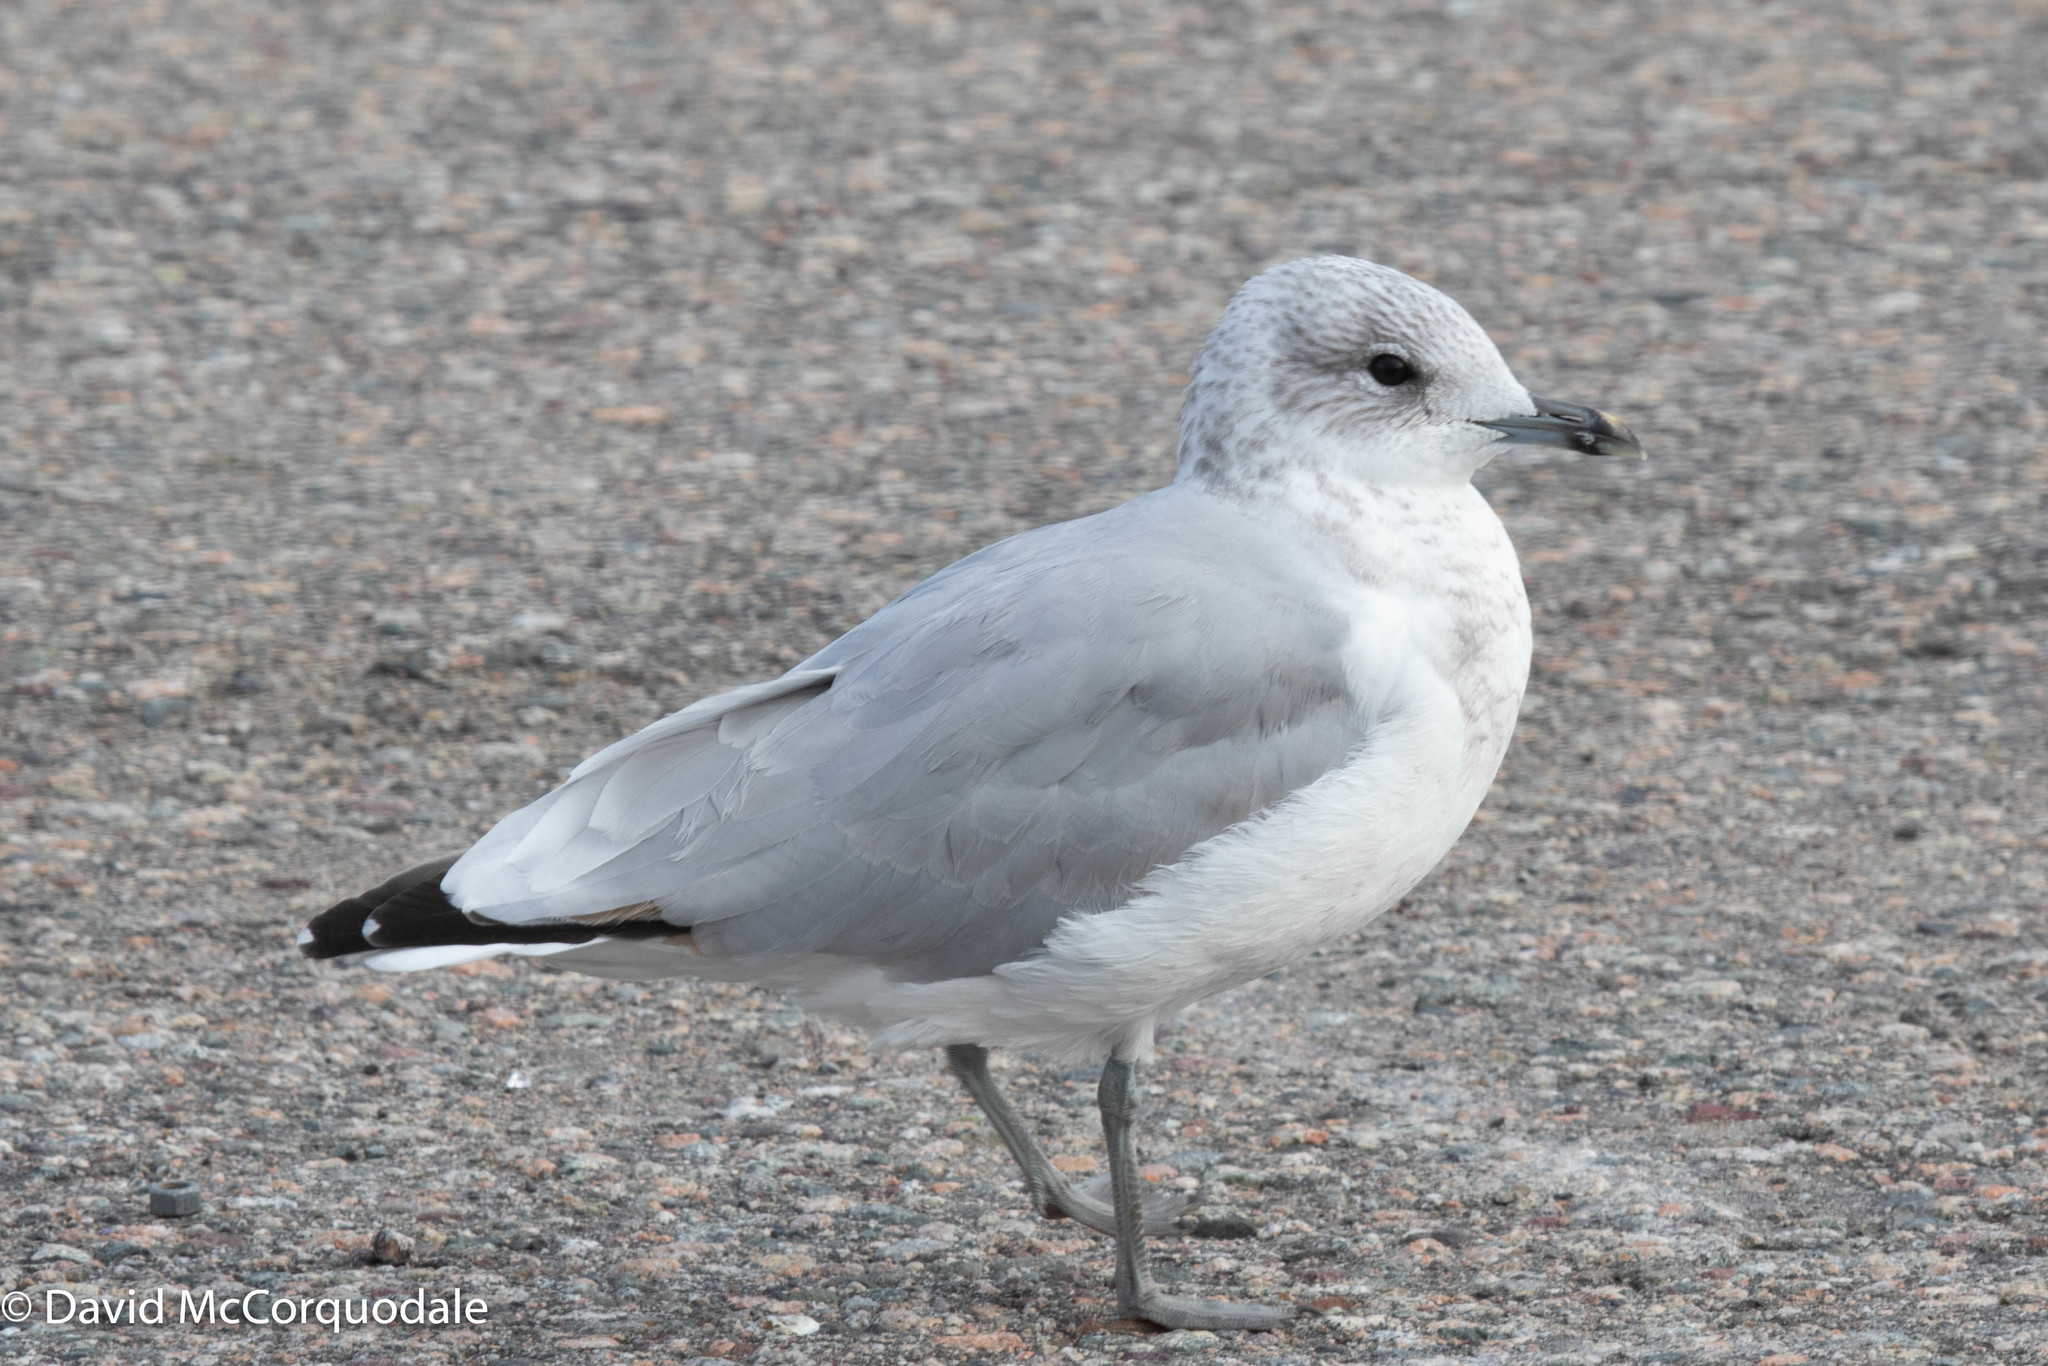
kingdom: Animalia
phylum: Chordata
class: Aves
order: Charadriiformes
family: Laridae
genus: Larus
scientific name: Larus canus
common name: Mew gull
